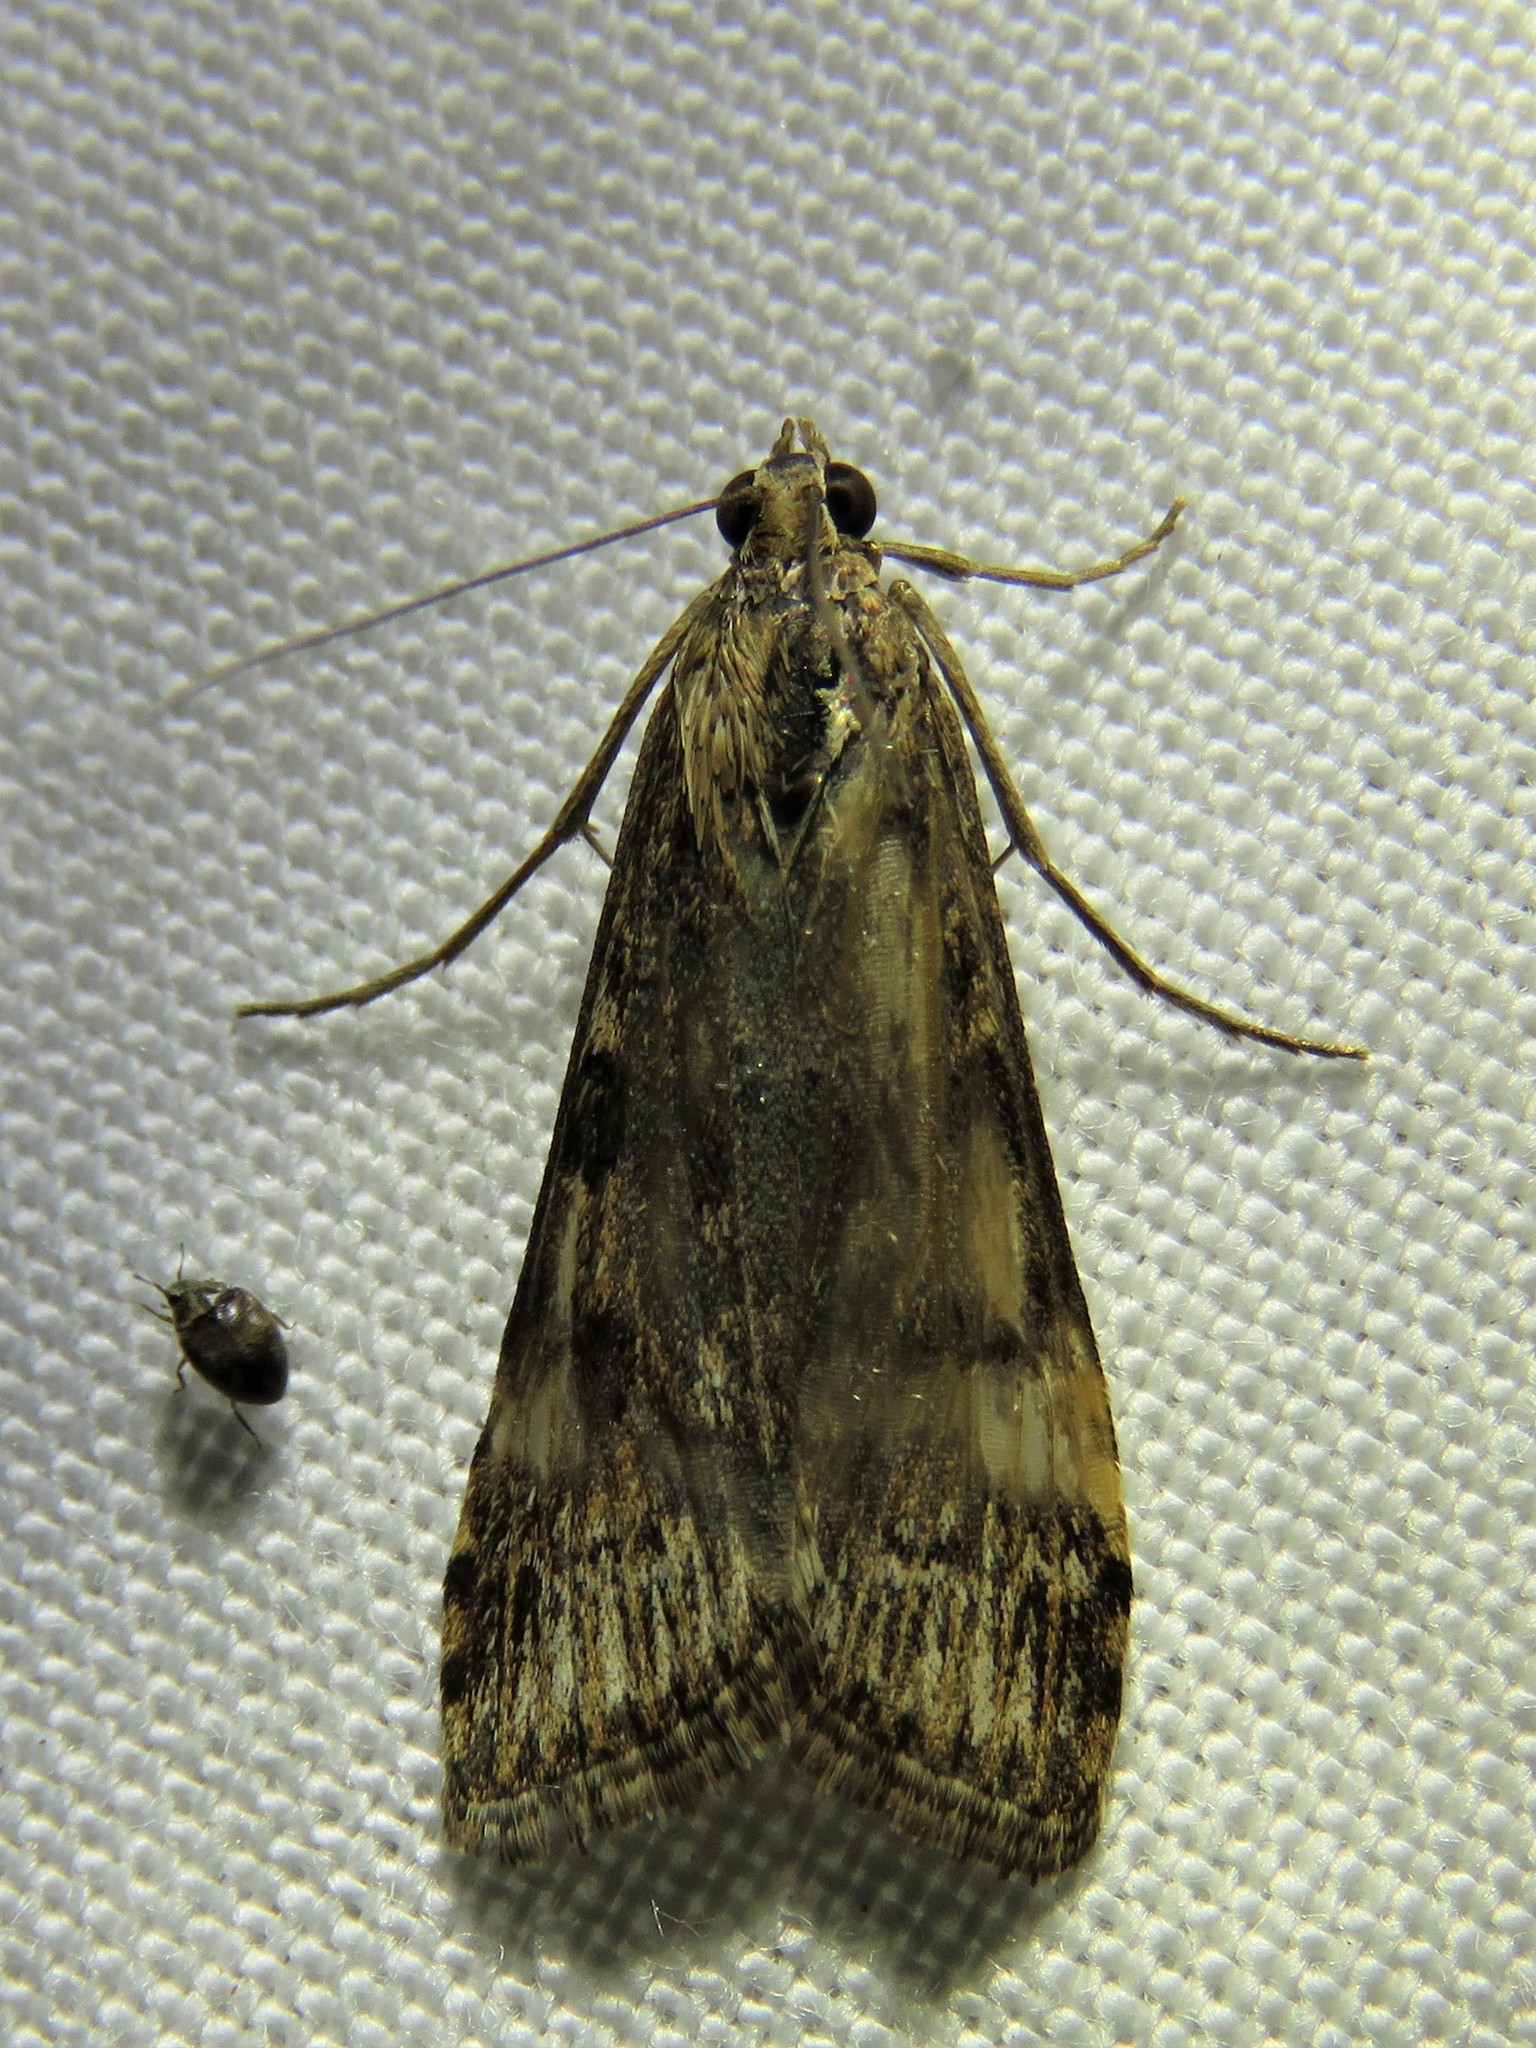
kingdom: Animalia
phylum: Arthropoda
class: Insecta
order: Lepidoptera
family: Crambidae
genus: Nomophila
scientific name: Nomophila nearctica
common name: American rush veneer
